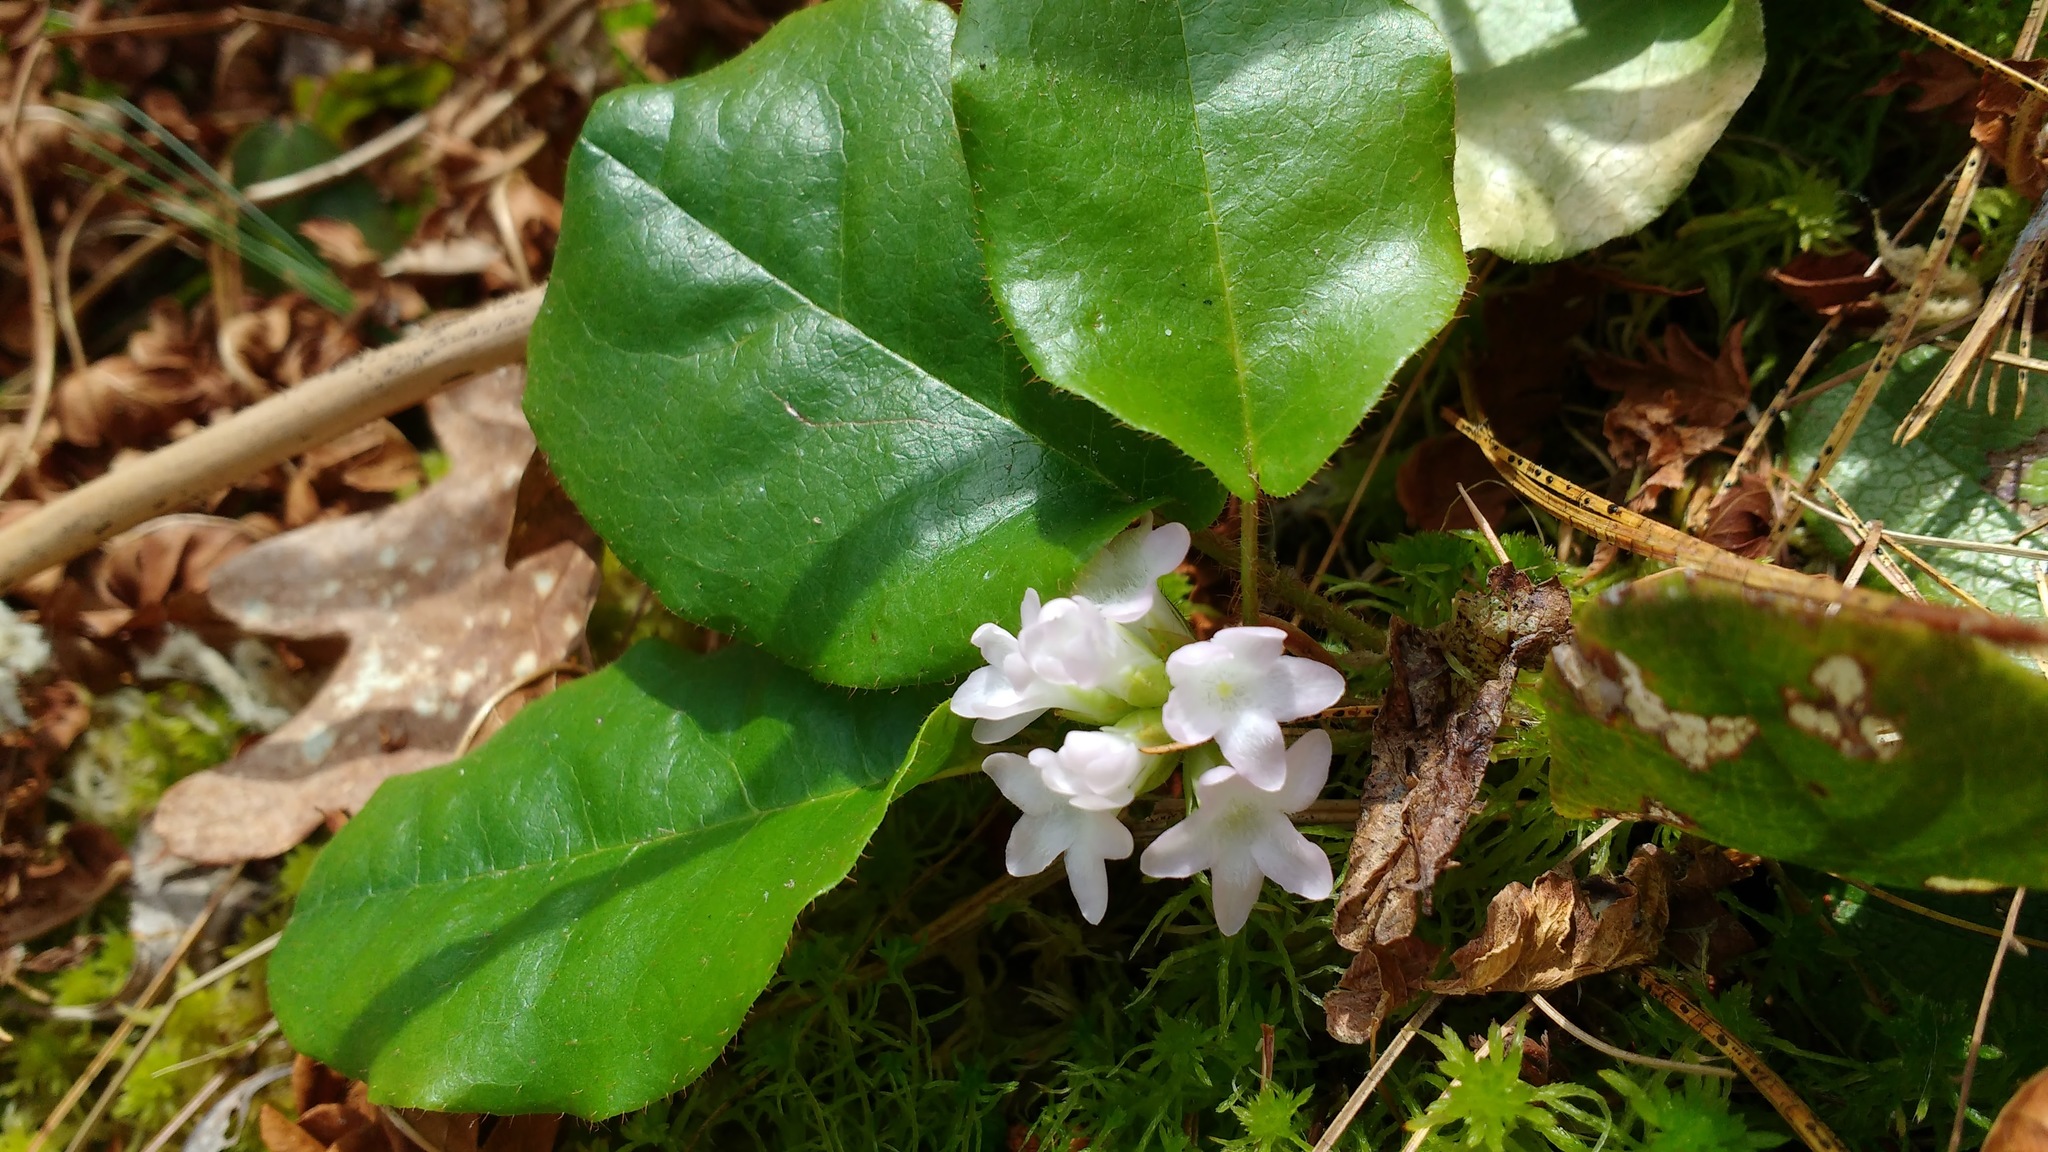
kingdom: Plantae
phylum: Tracheophyta
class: Magnoliopsida
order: Ericales
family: Ericaceae
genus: Epigaea
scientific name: Epigaea repens
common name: Gravelroot
